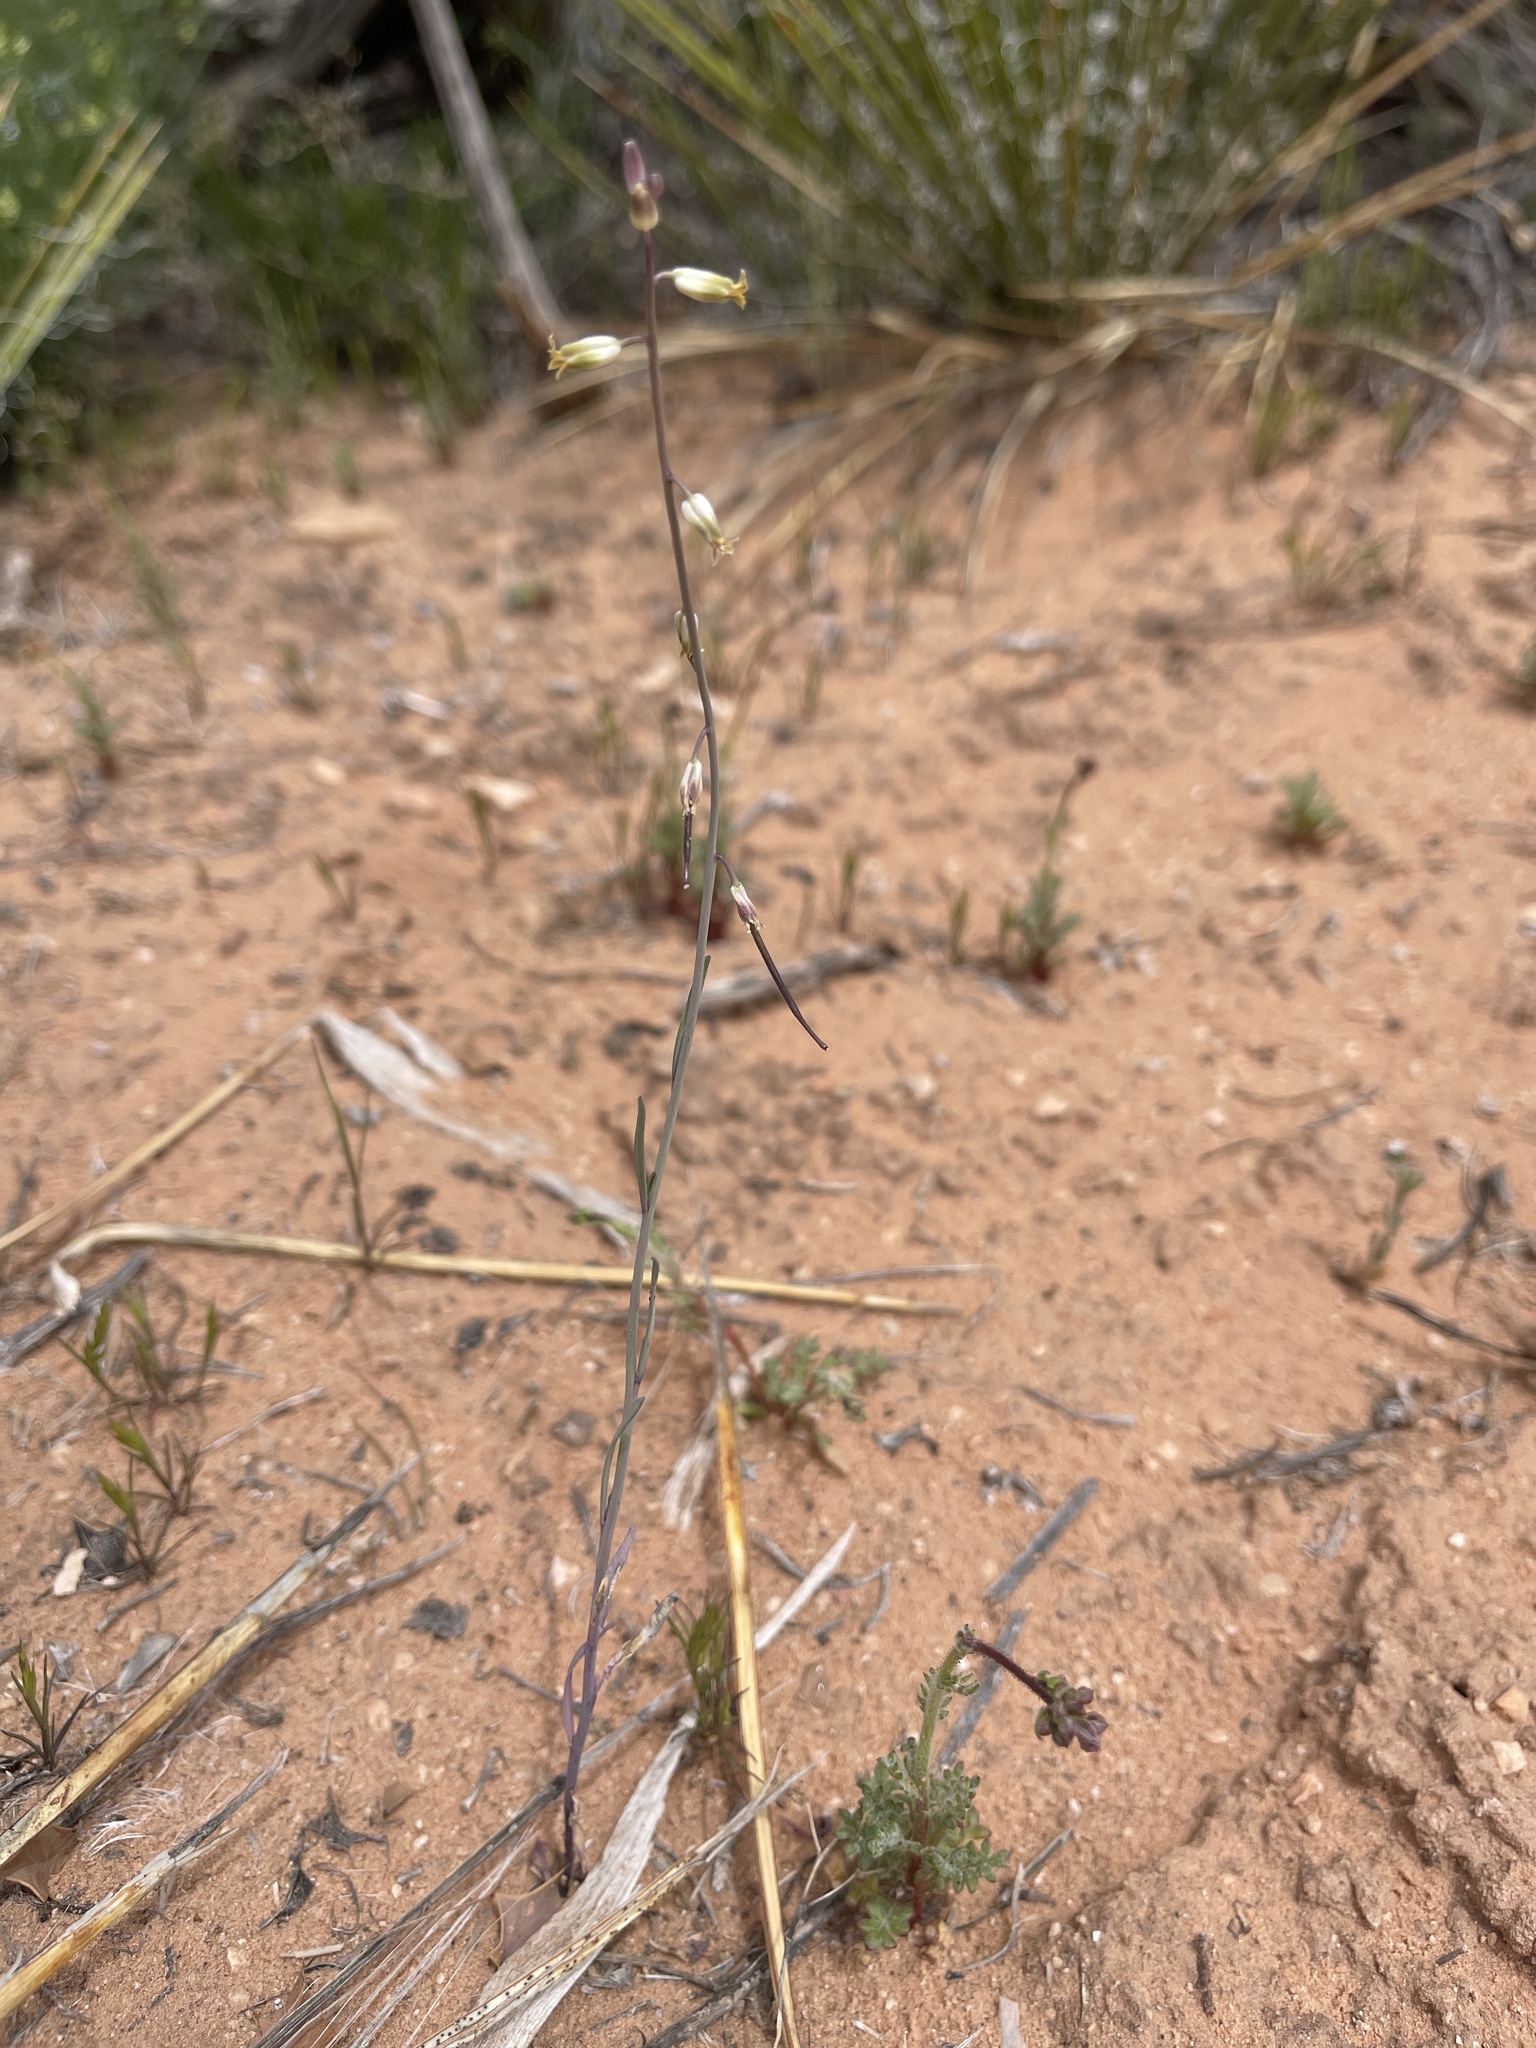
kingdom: Plantae
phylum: Tracheophyta
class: Magnoliopsida
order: Brassicales
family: Brassicaceae
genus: Streptanthus
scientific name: Streptanthus longirostris
